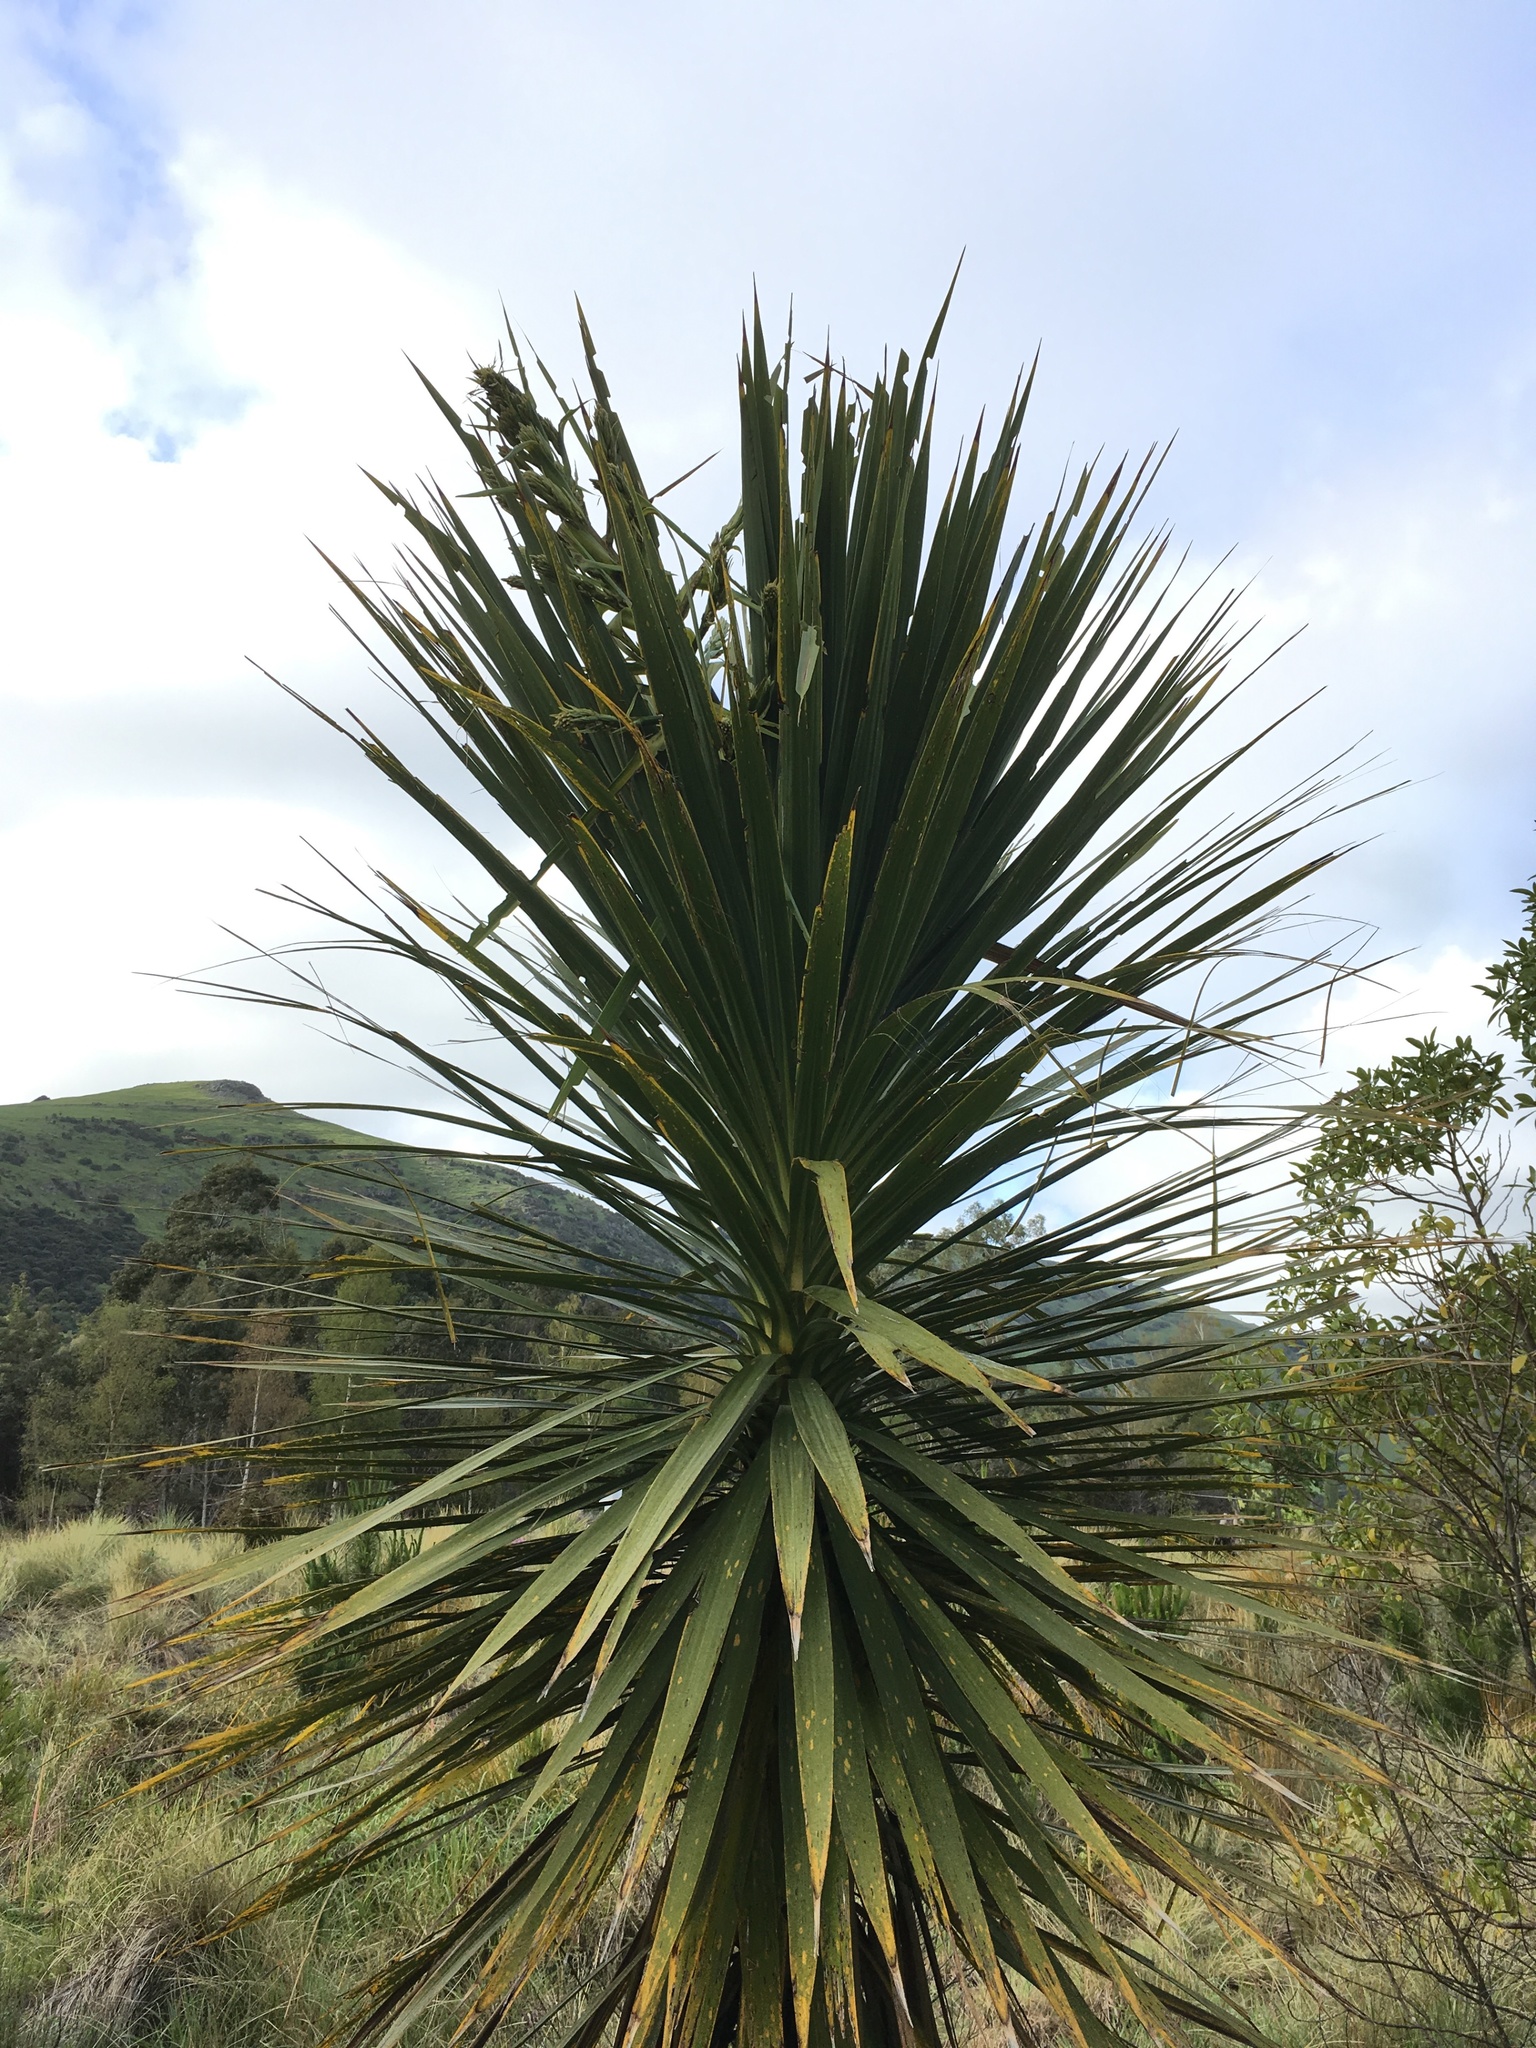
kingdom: Plantae
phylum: Tracheophyta
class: Liliopsida
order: Asparagales
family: Asparagaceae
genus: Cordyline
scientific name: Cordyline australis
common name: Cabbage-palm
